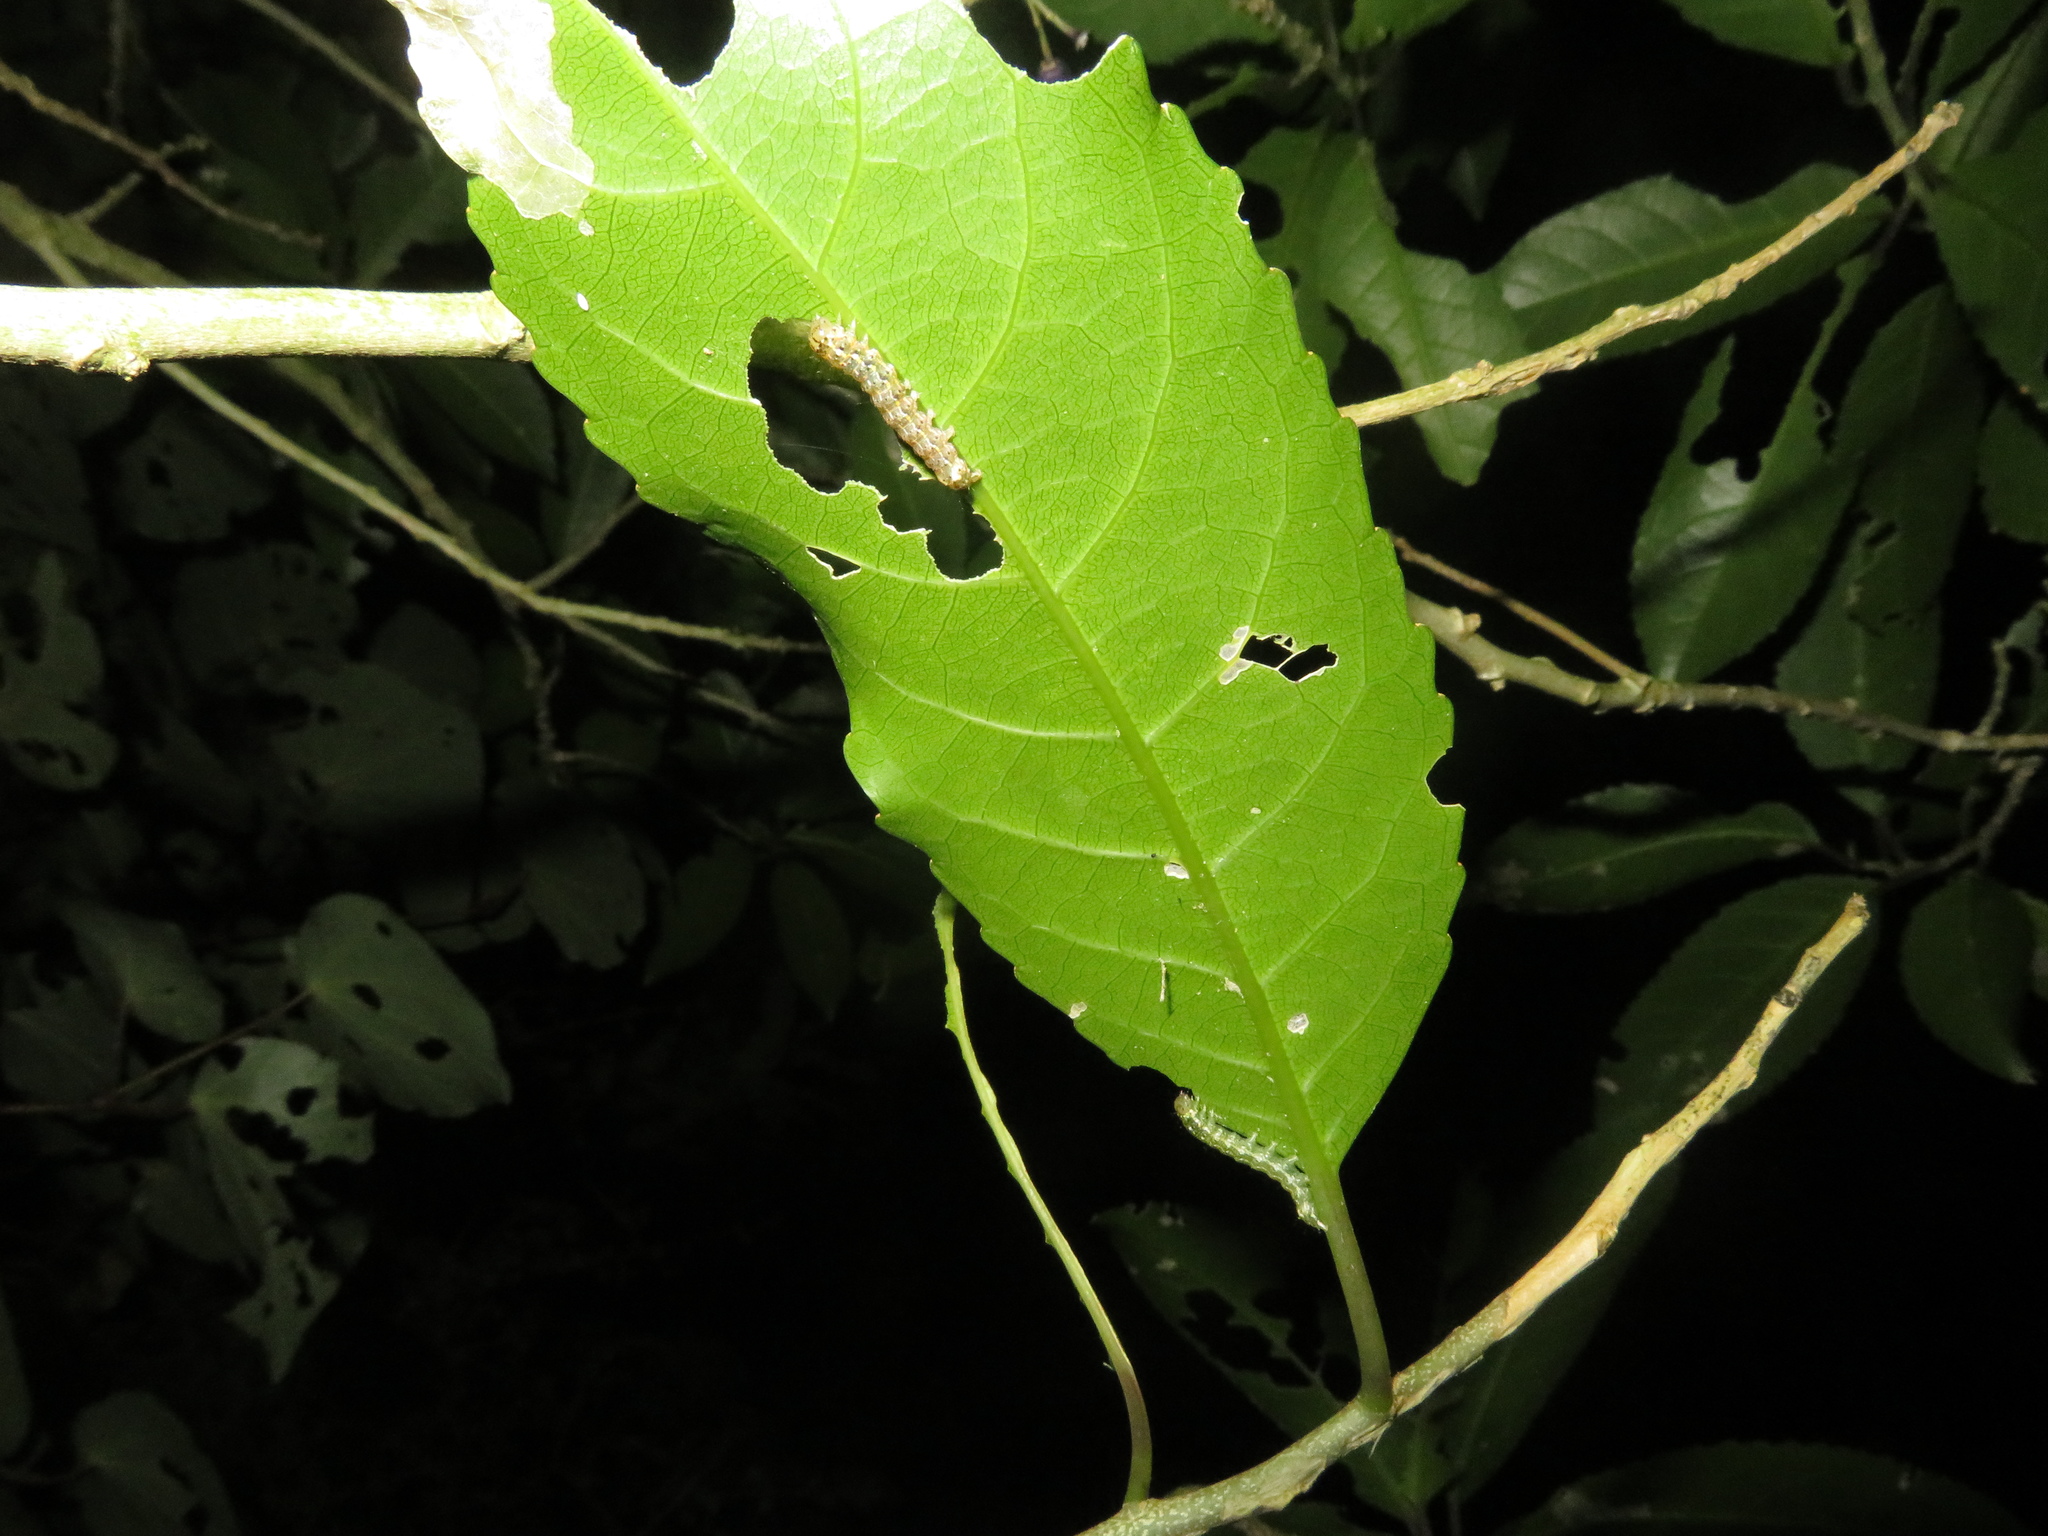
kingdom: Animalia
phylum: Arthropoda
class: Insecta
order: Lepidoptera
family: Noctuidae
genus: Feredayia
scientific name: Feredayia grammosa
